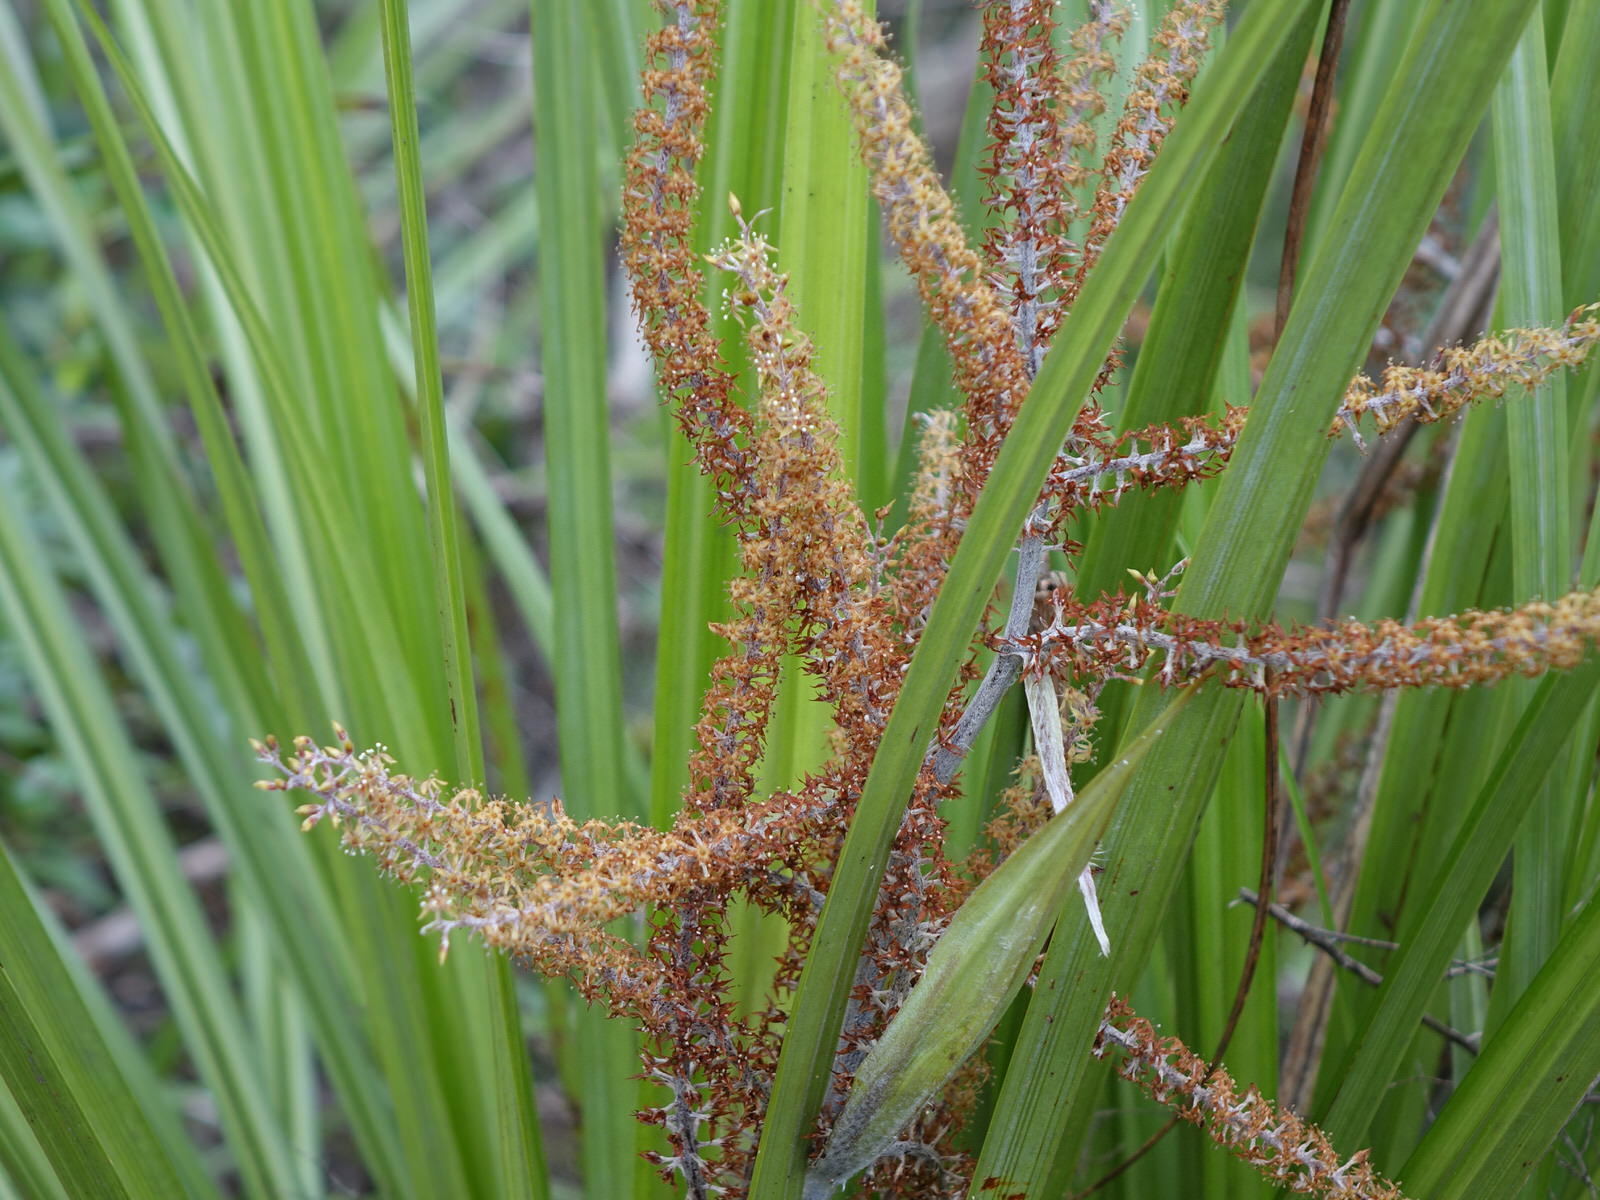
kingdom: Plantae
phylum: Tracheophyta
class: Liliopsida
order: Asparagales
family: Asteliaceae
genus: Astelia
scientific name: Astelia trinervia
